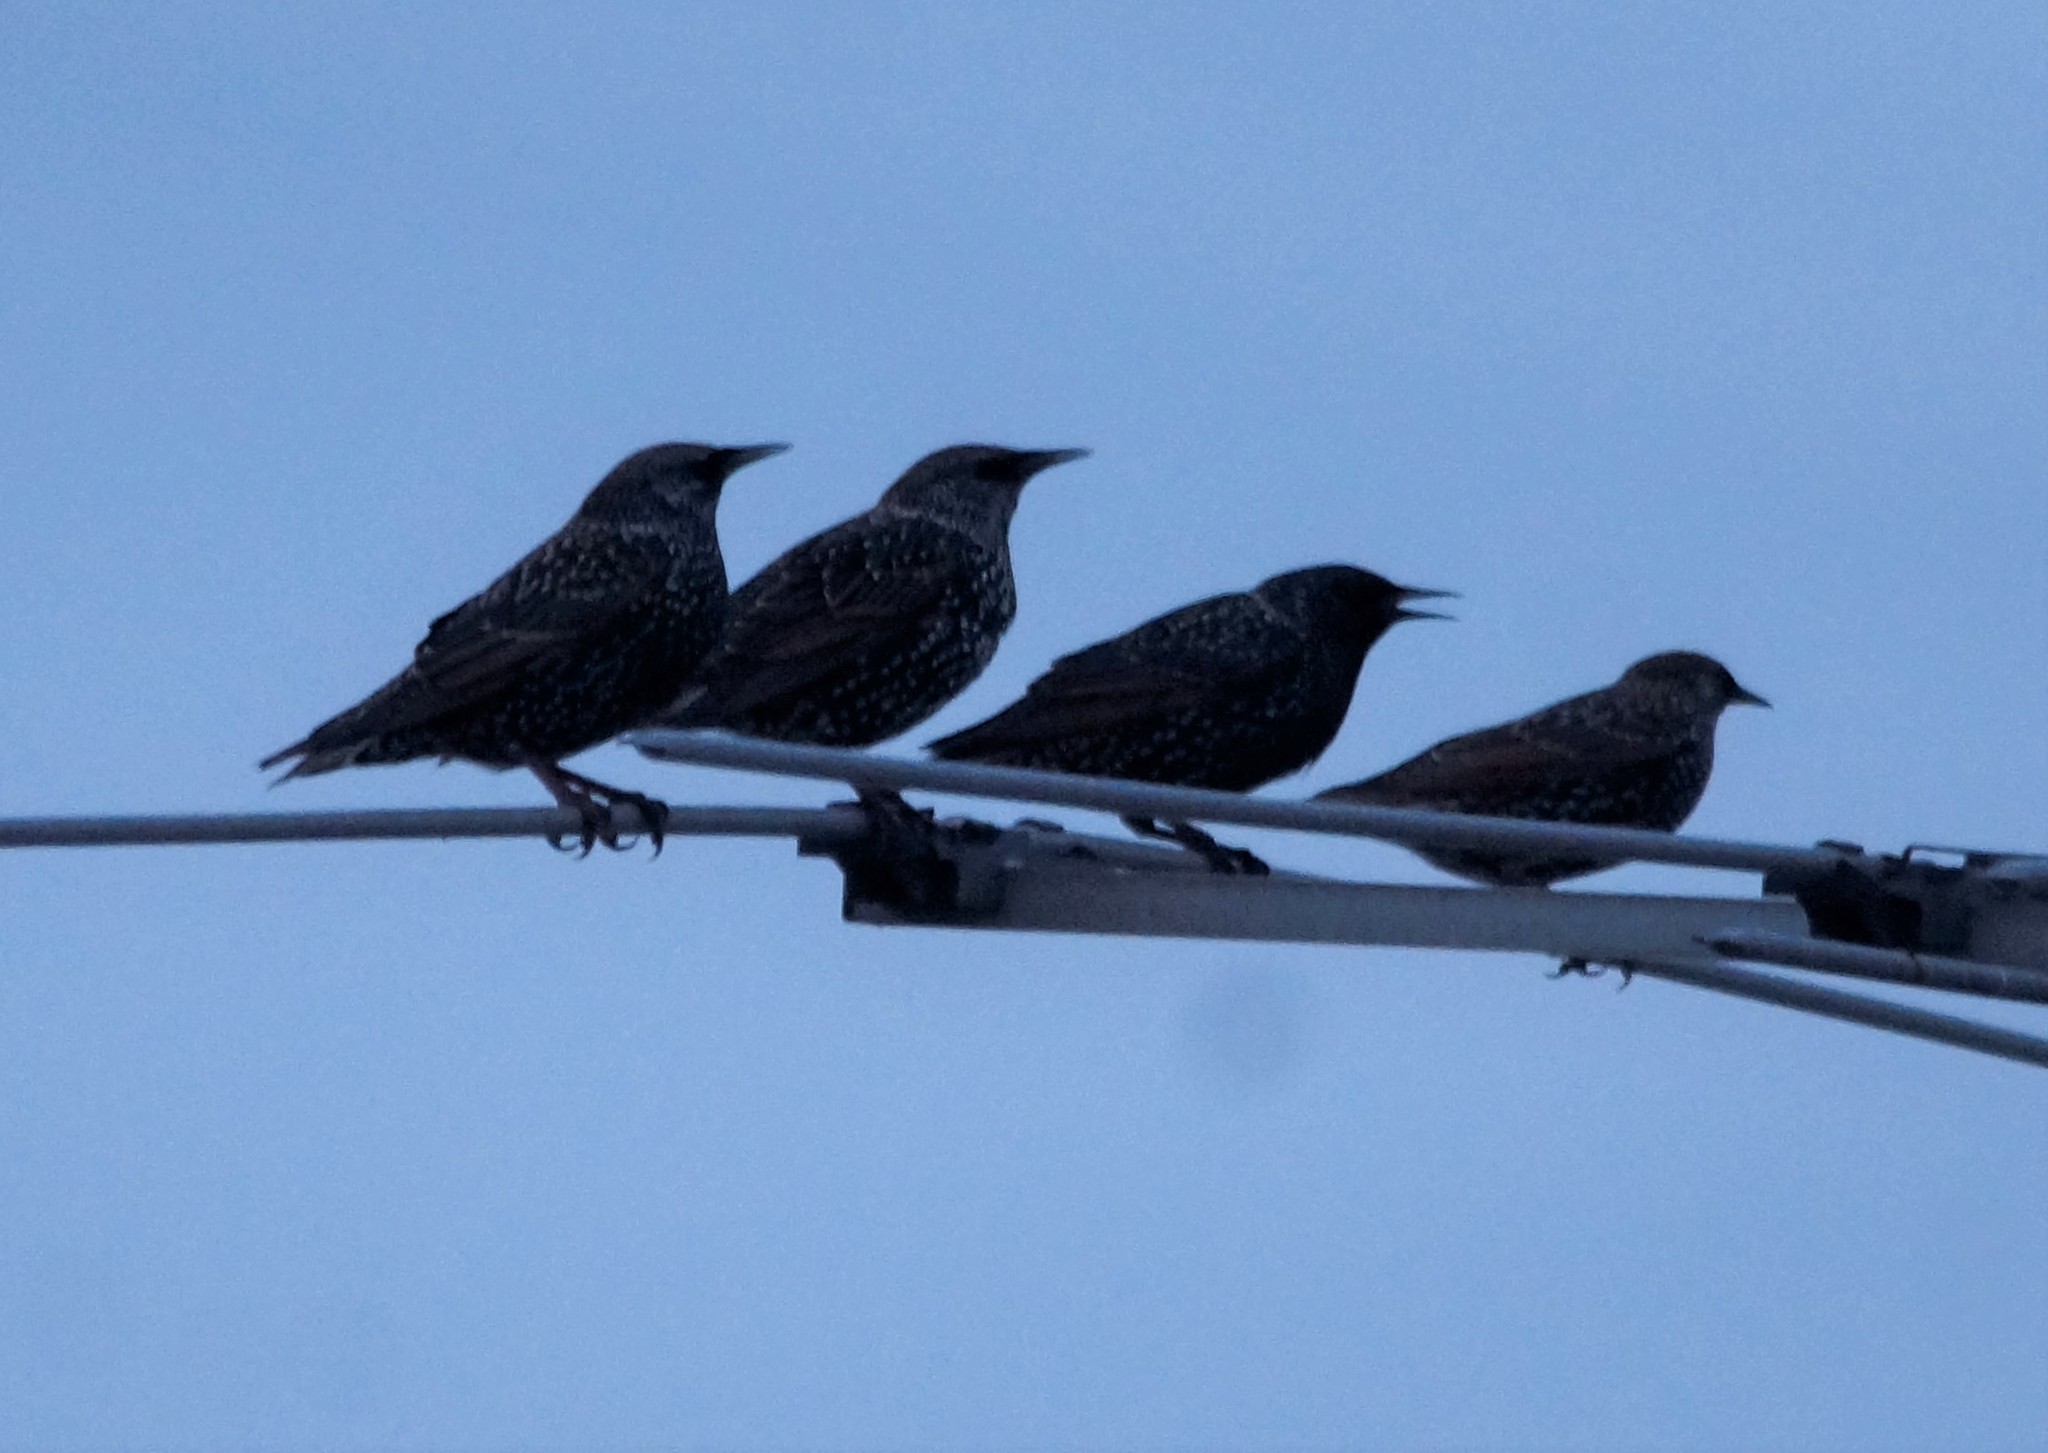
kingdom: Animalia
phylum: Chordata
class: Aves
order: Passeriformes
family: Sturnidae
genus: Sturnus
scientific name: Sturnus vulgaris
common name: Common starling
